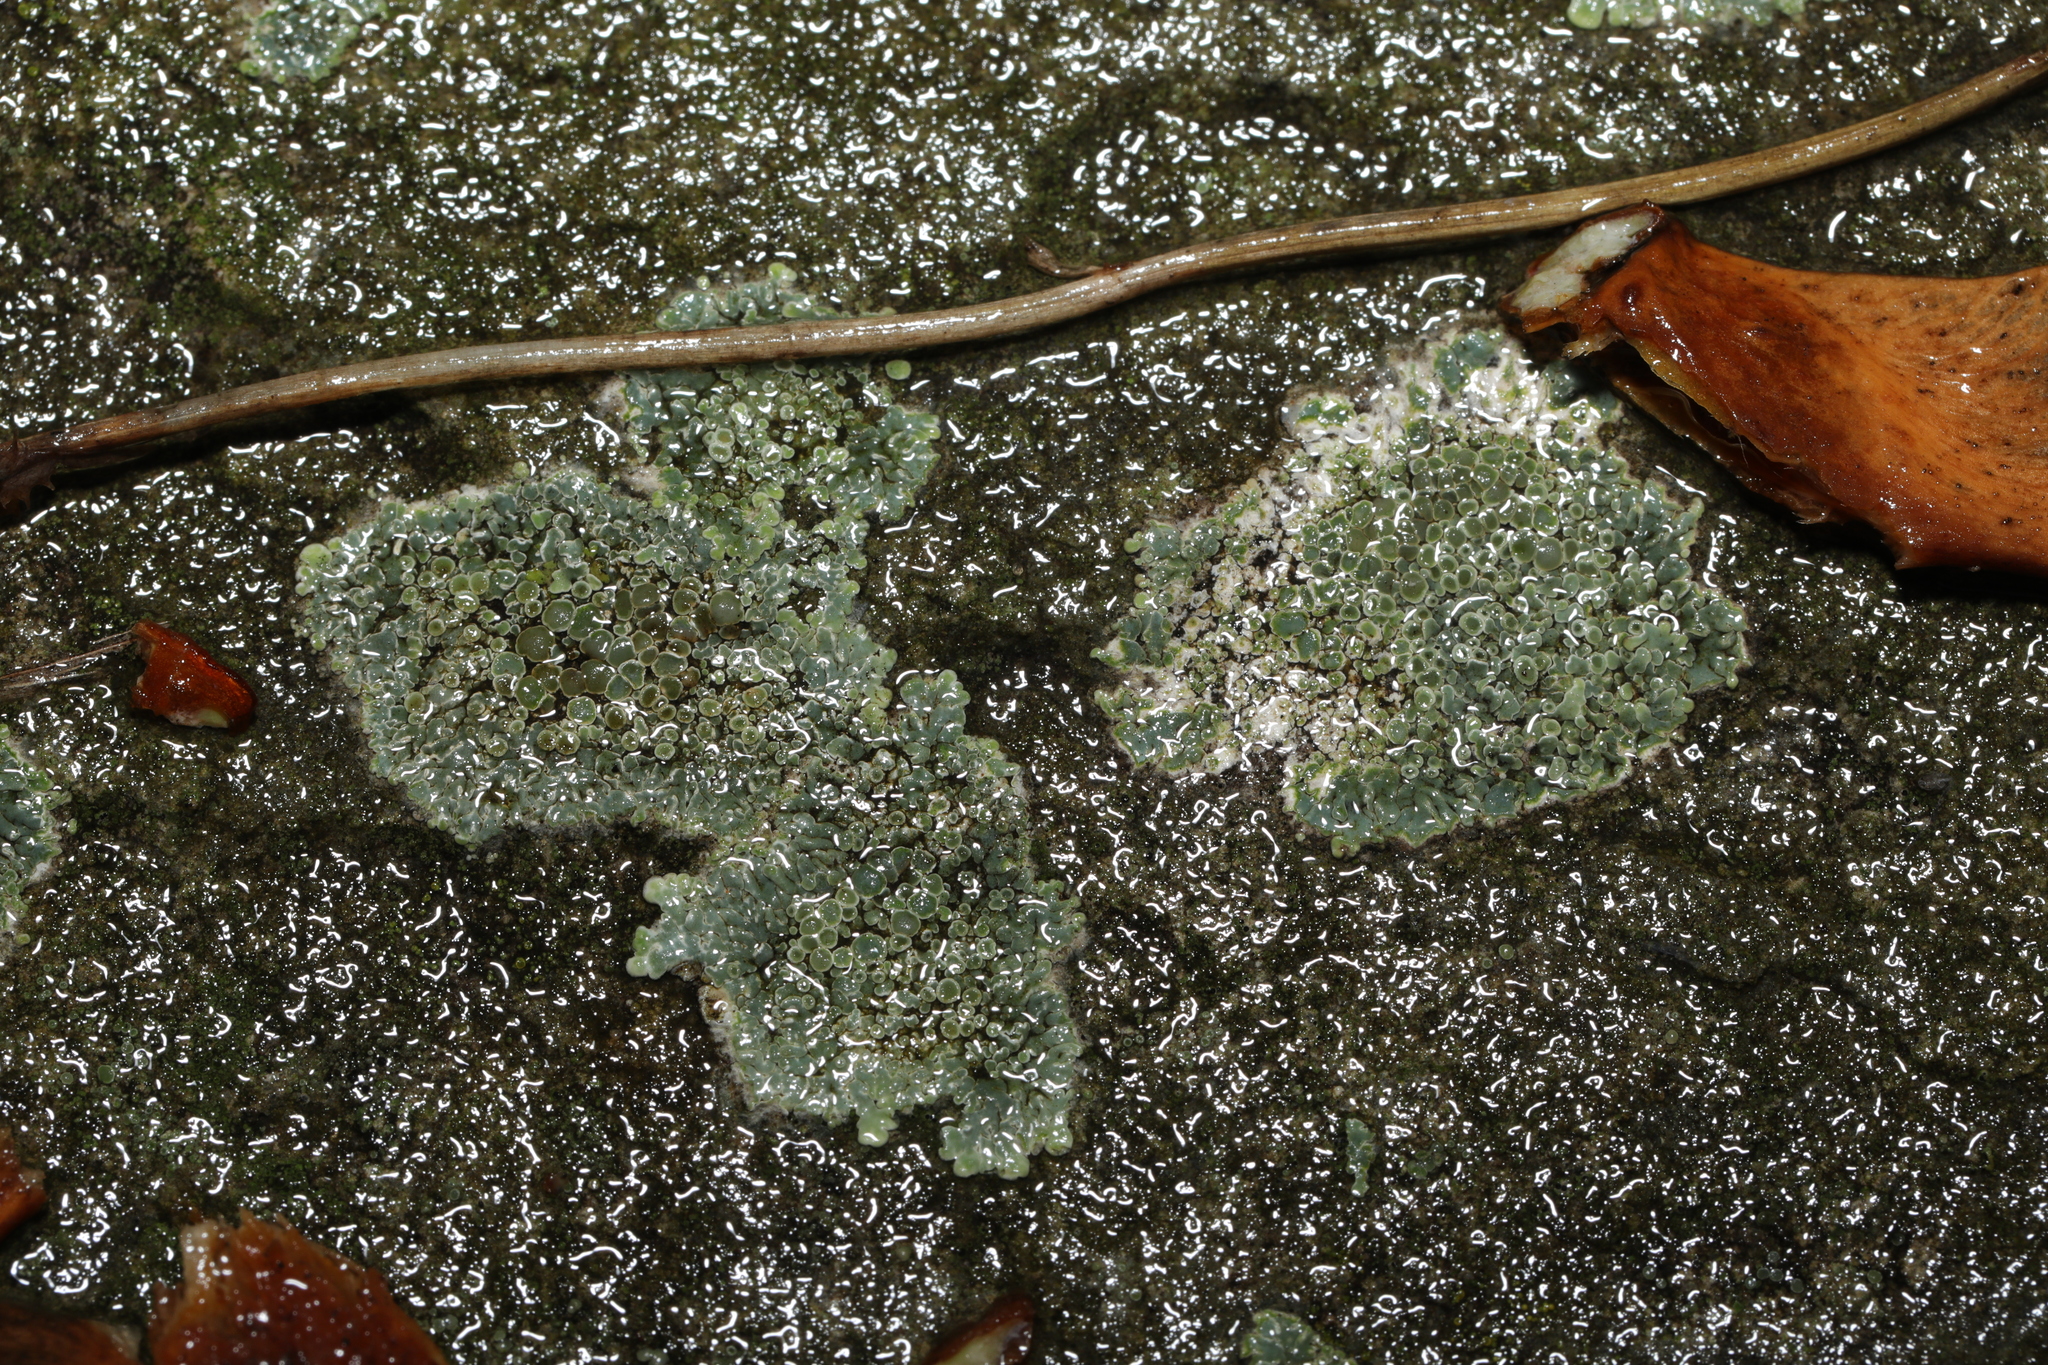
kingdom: Fungi
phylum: Ascomycota
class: Lecanoromycetes
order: Lecanorales
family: Lecanoraceae
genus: Protoparmeliopsis
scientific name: Protoparmeliopsis muralis
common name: Stonewall rim lichen
